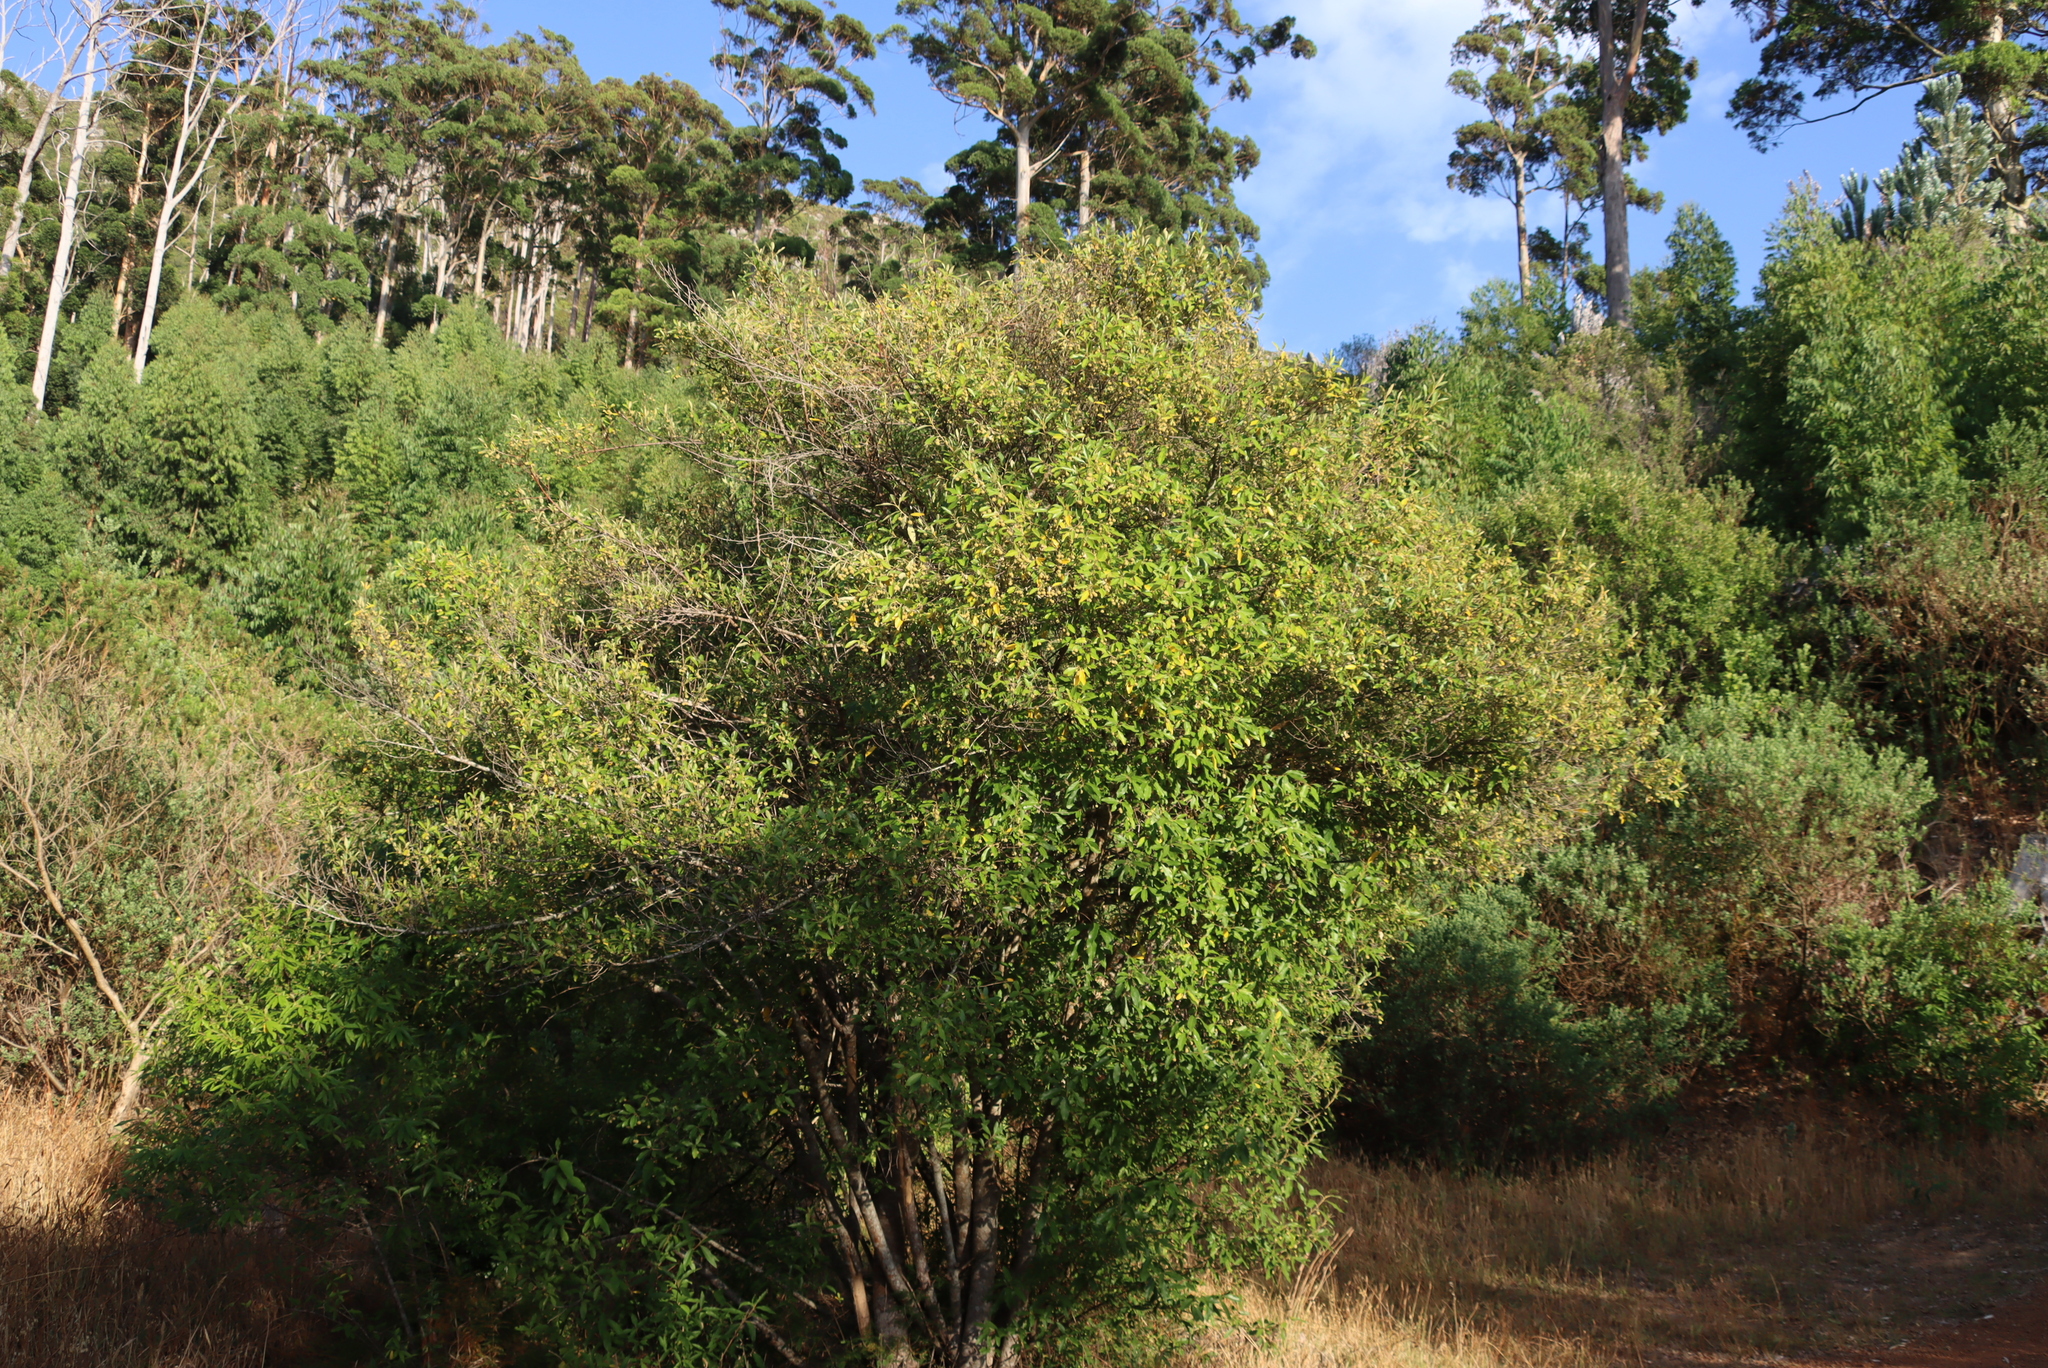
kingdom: Plantae
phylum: Tracheophyta
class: Magnoliopsida
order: Malpighiales
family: Achariaceae
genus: Kiggelaria
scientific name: Kiggelaria africana
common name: Wild peach
